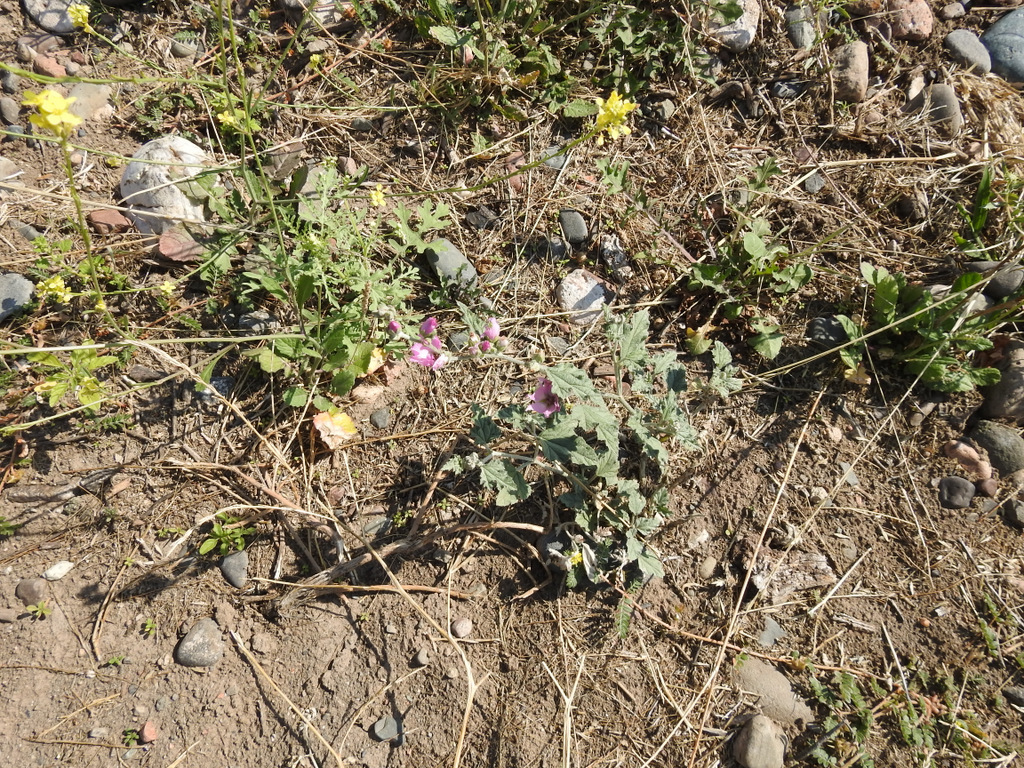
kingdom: Plantae
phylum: Tracheophyta
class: Magnoliopsida
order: Malvales
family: Malvaceae
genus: Sphaeralcea
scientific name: Sphaeralcea mendocina
